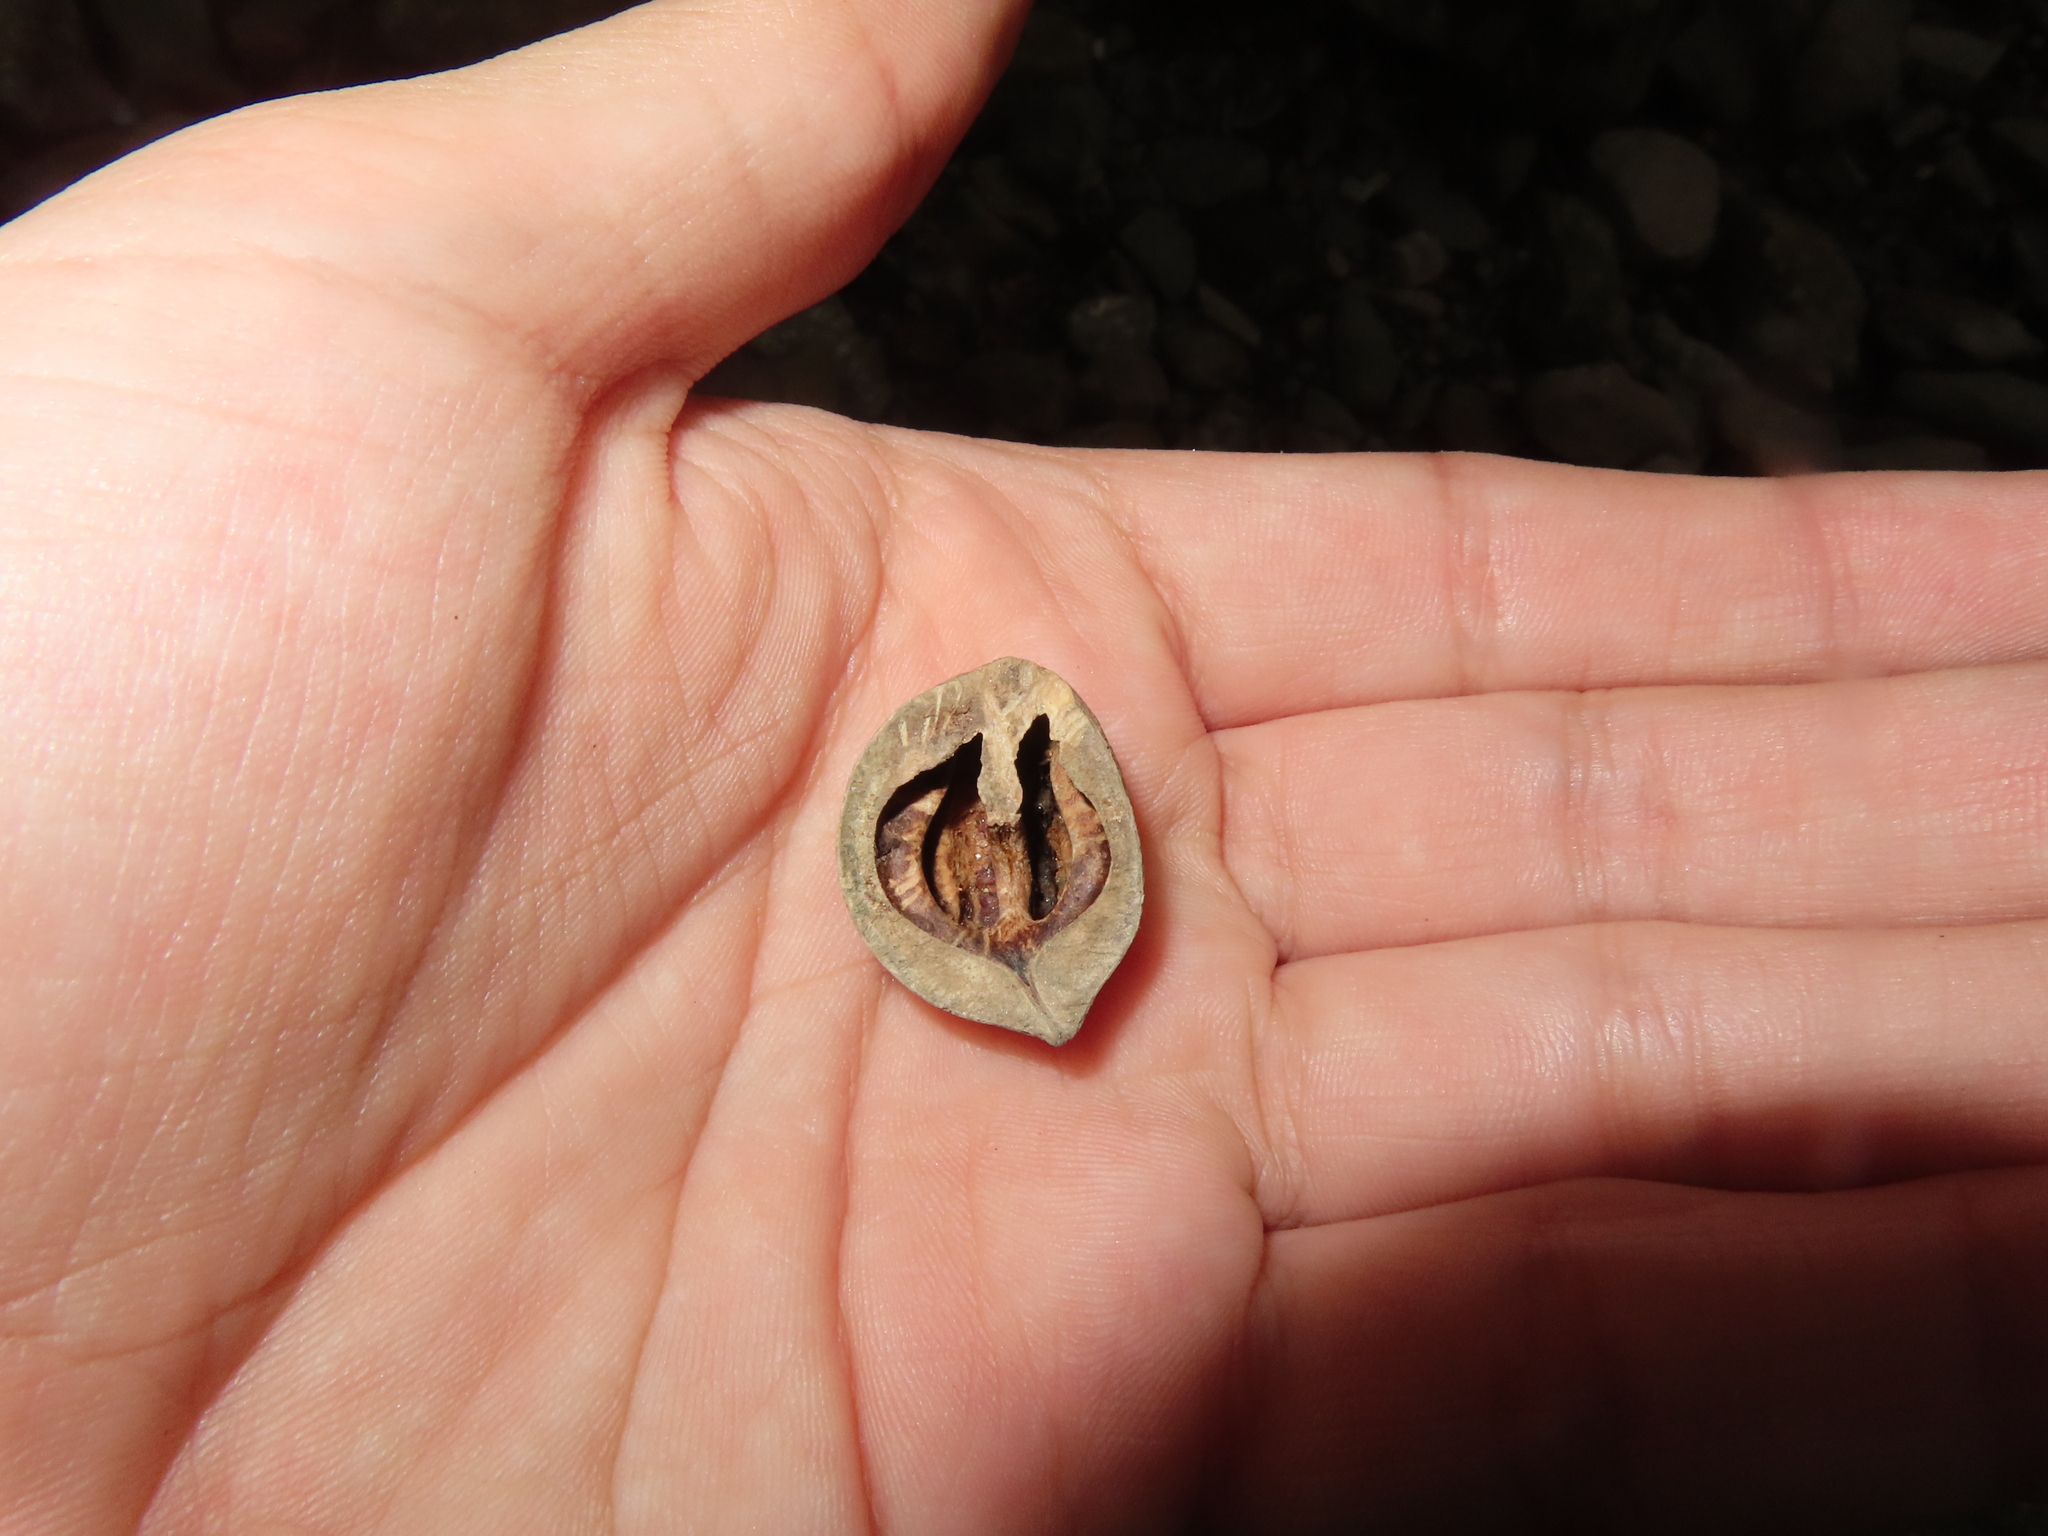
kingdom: Plantae
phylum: Tracheophyta
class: Magnoliopsida
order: Fagales
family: Juglandaceae
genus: Juglans
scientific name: Juglans ailantifolia
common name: Japanese walnut
